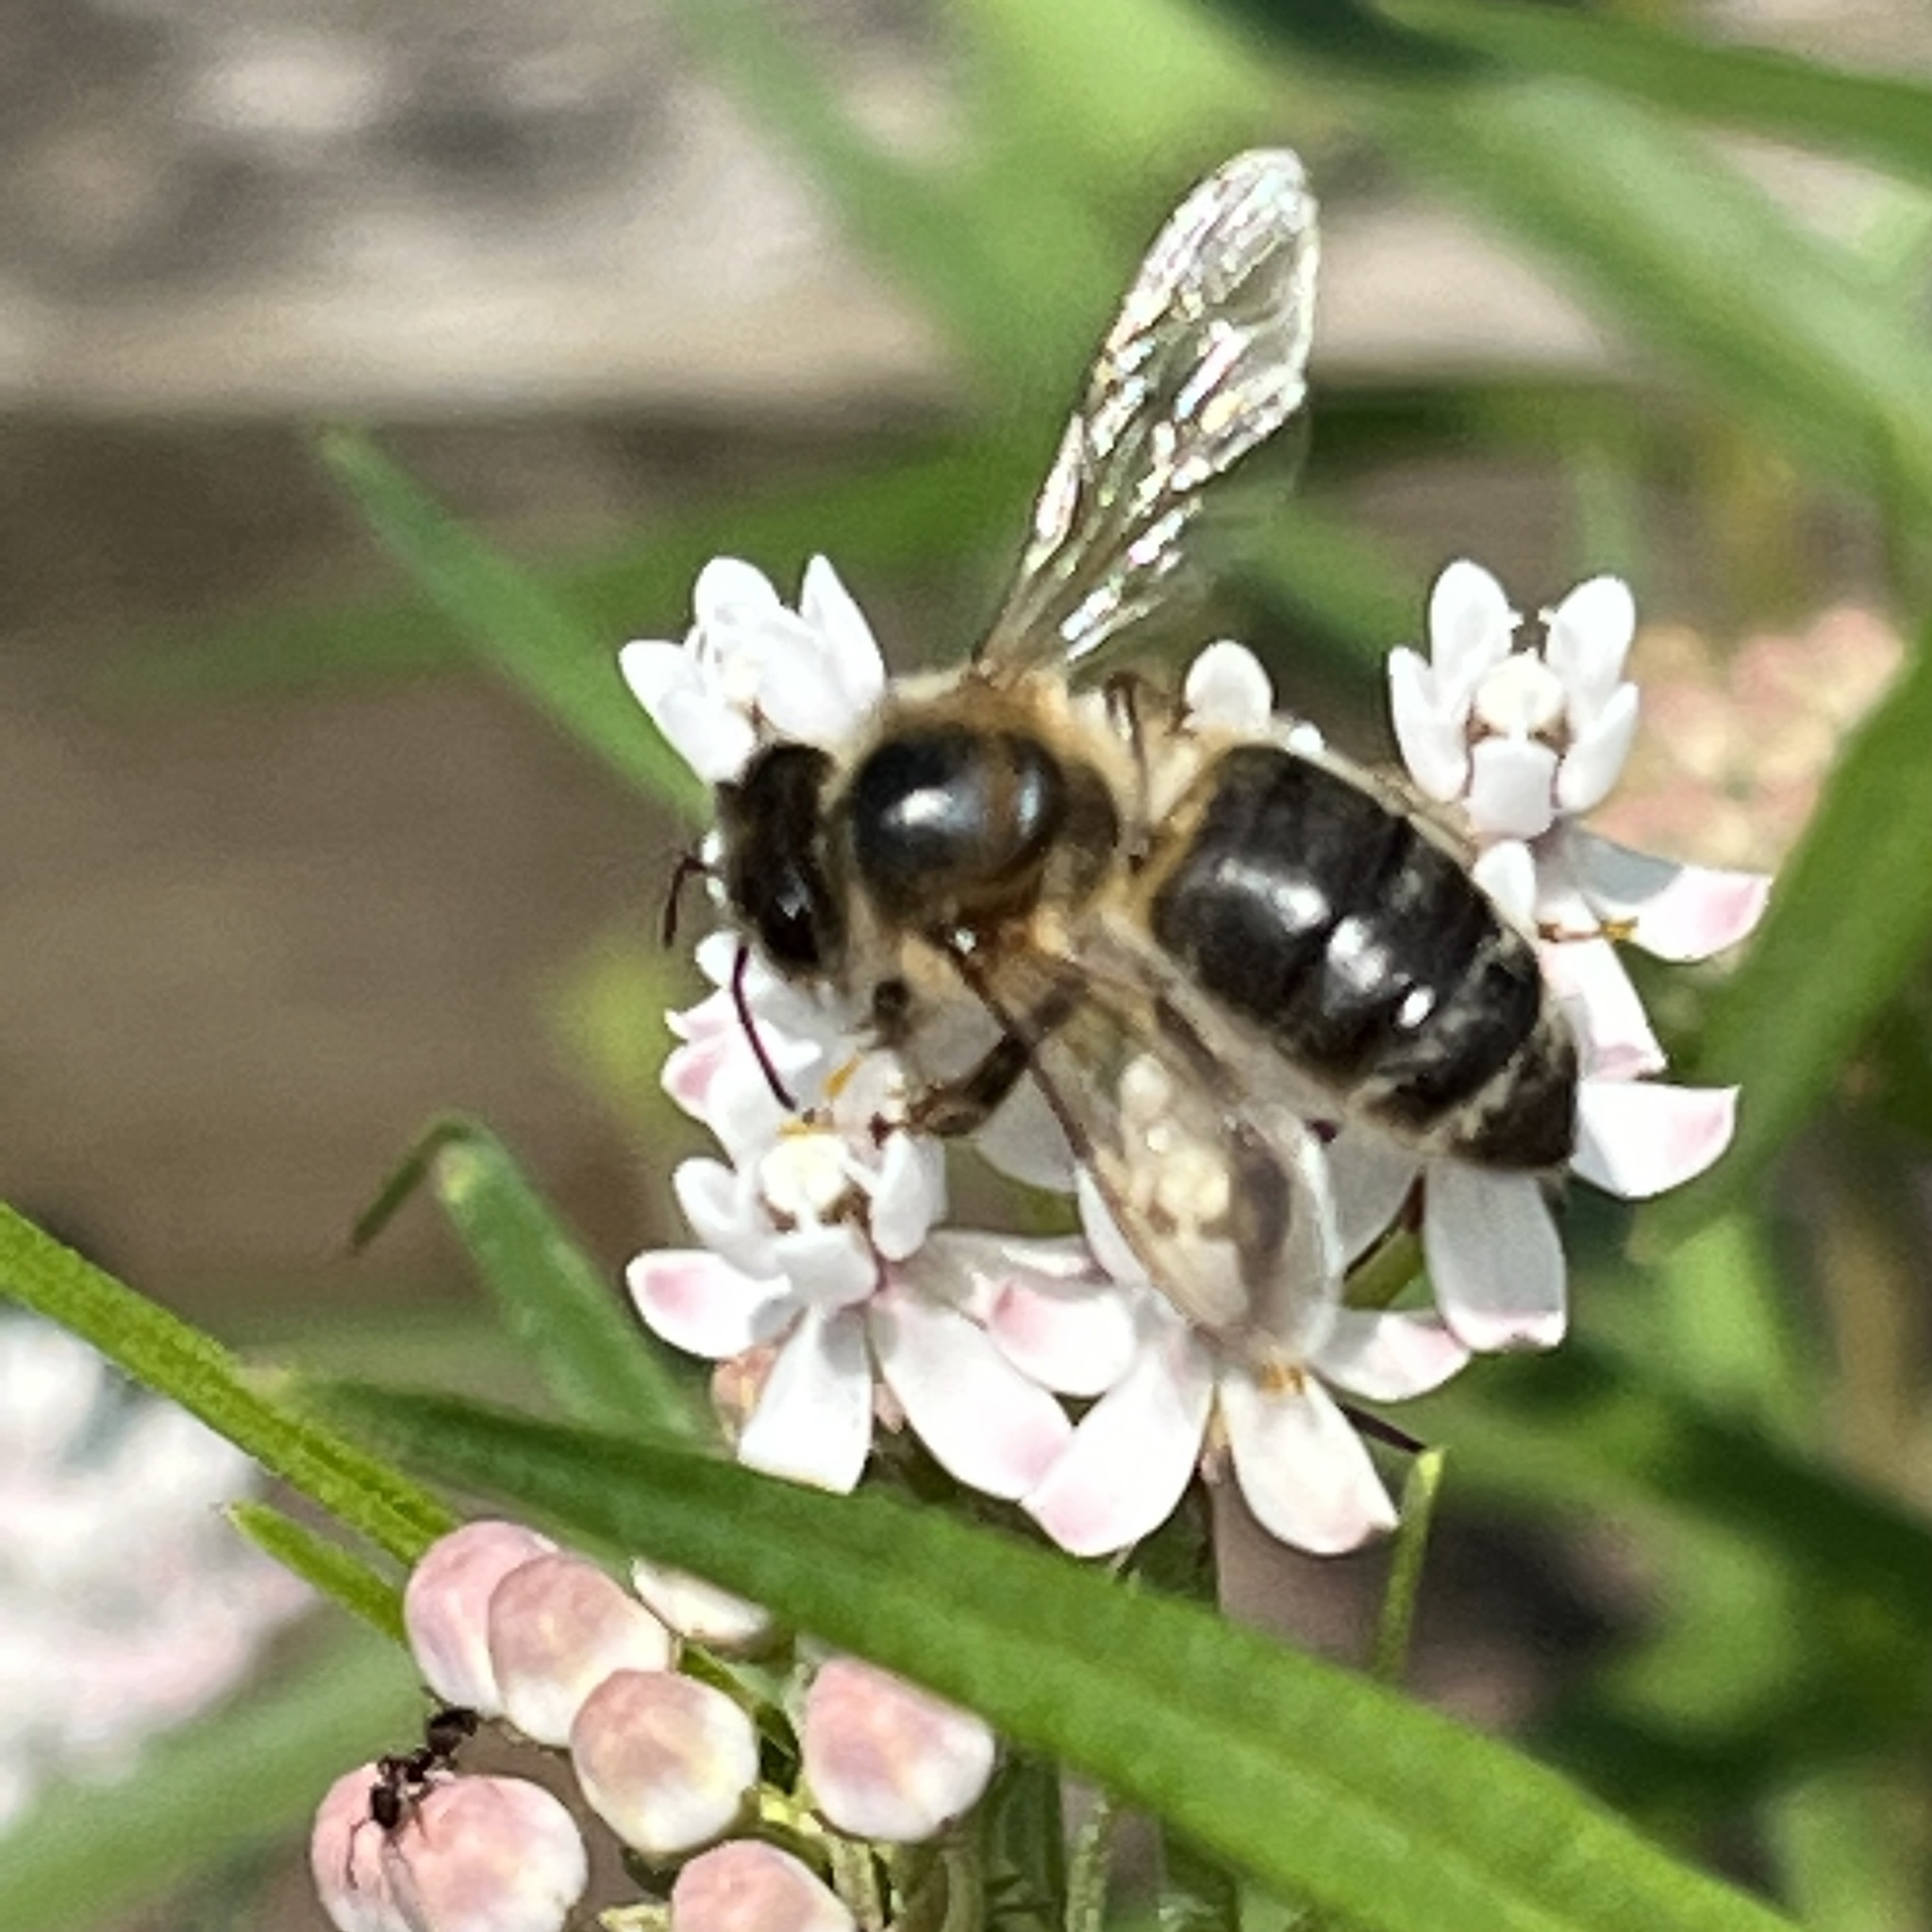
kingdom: Animalia
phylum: Arthropoda
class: Insecta
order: Hymenoptera
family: Apidae
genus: Apis
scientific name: Apis mellifera
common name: Honey bee
